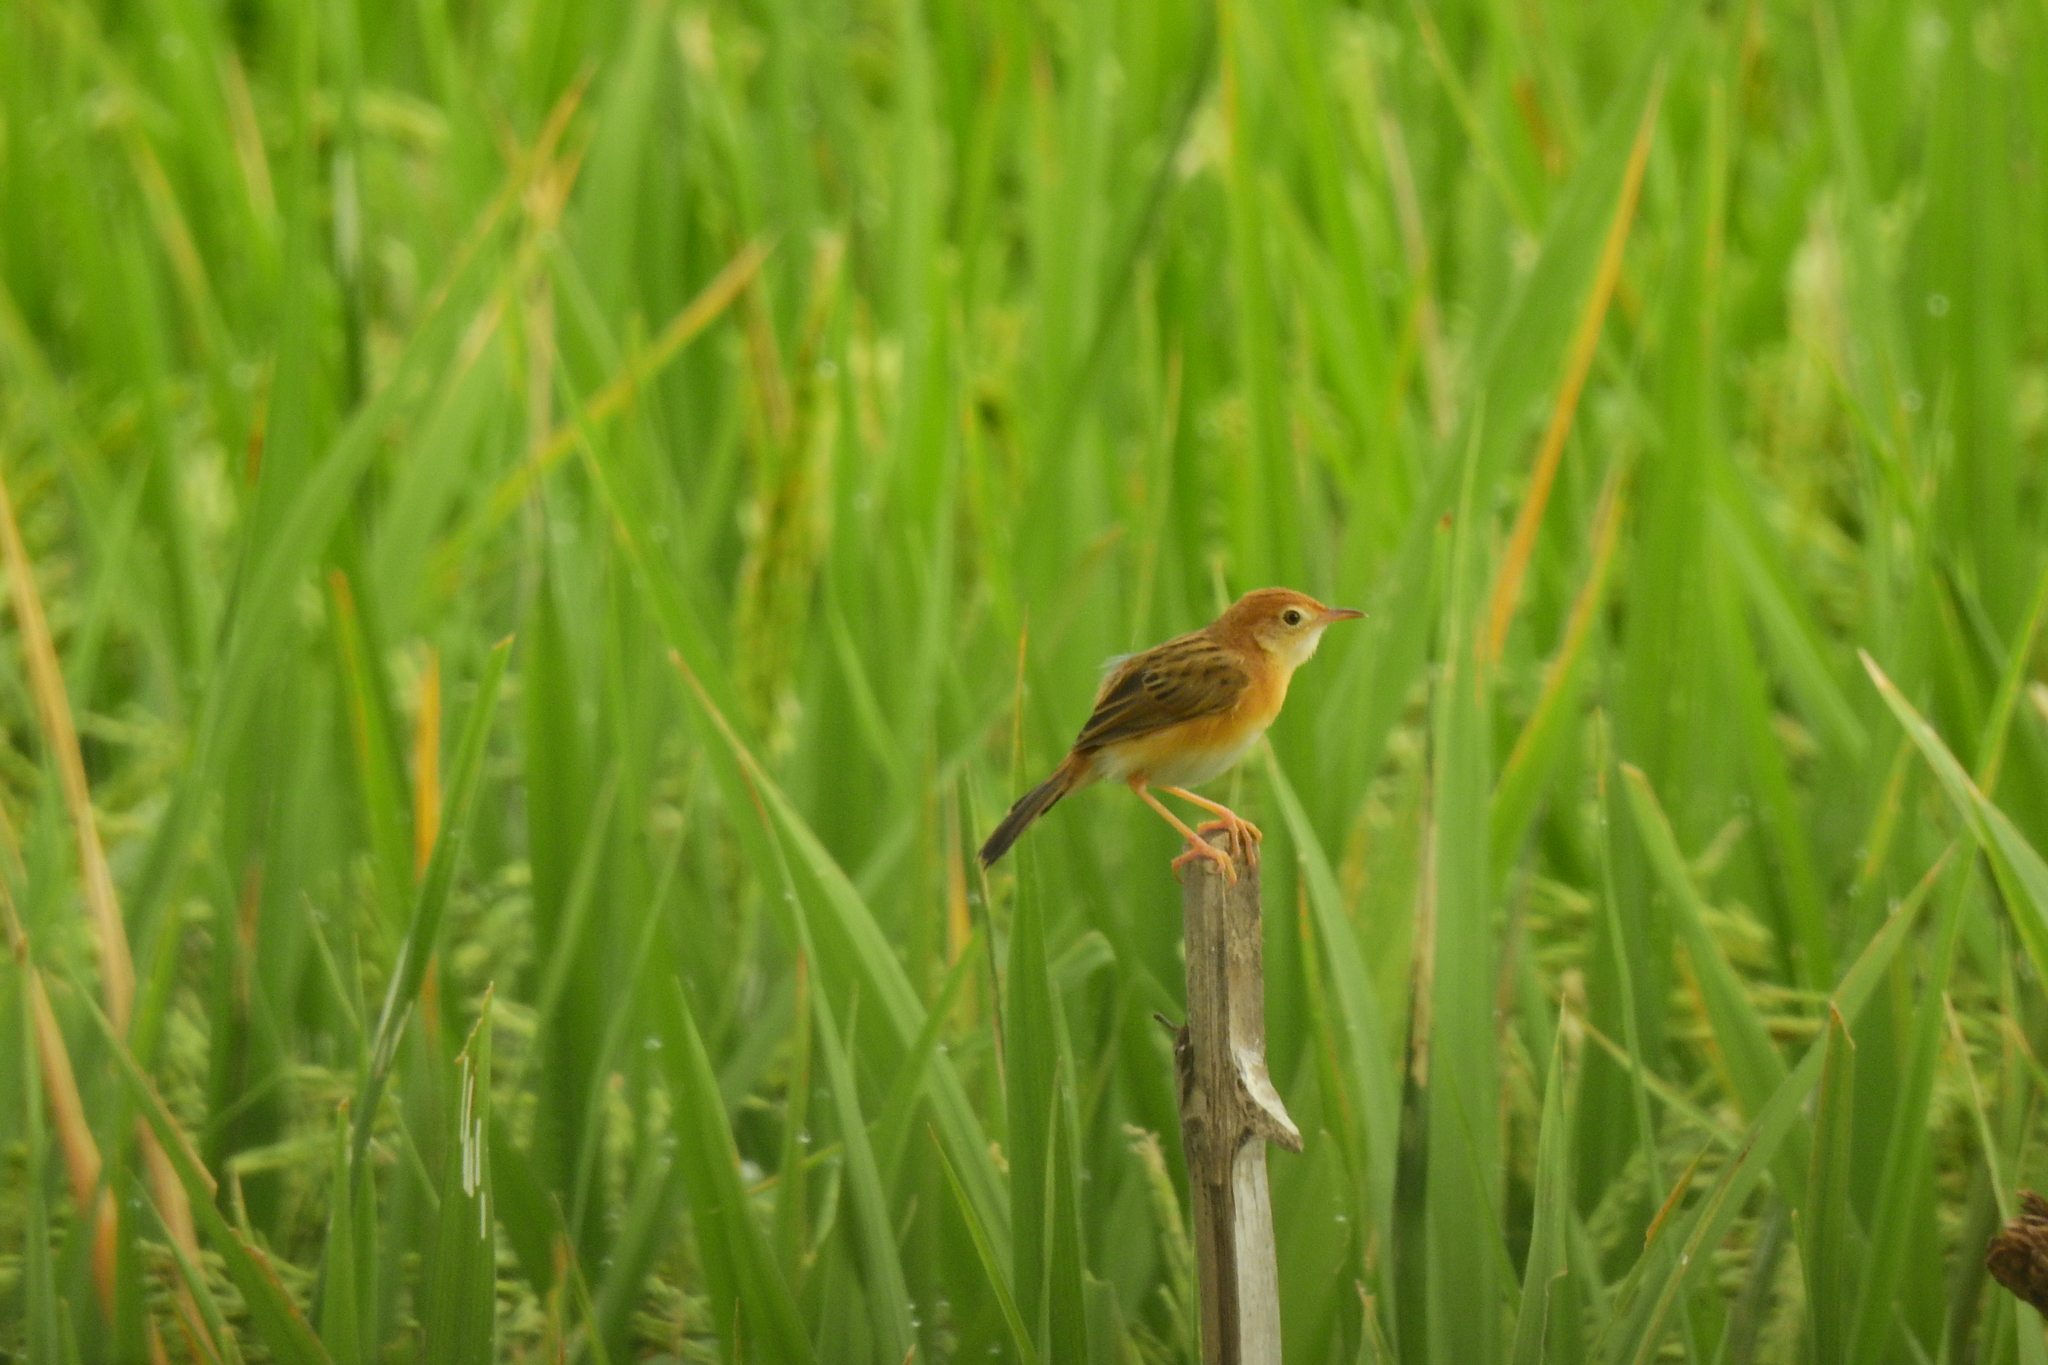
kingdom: Animalia
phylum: Chordata
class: Aves
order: Passeriformes
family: Cisticolidae
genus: Cisticola
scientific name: Cisticola exilis
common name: Golden-headed cisticola
